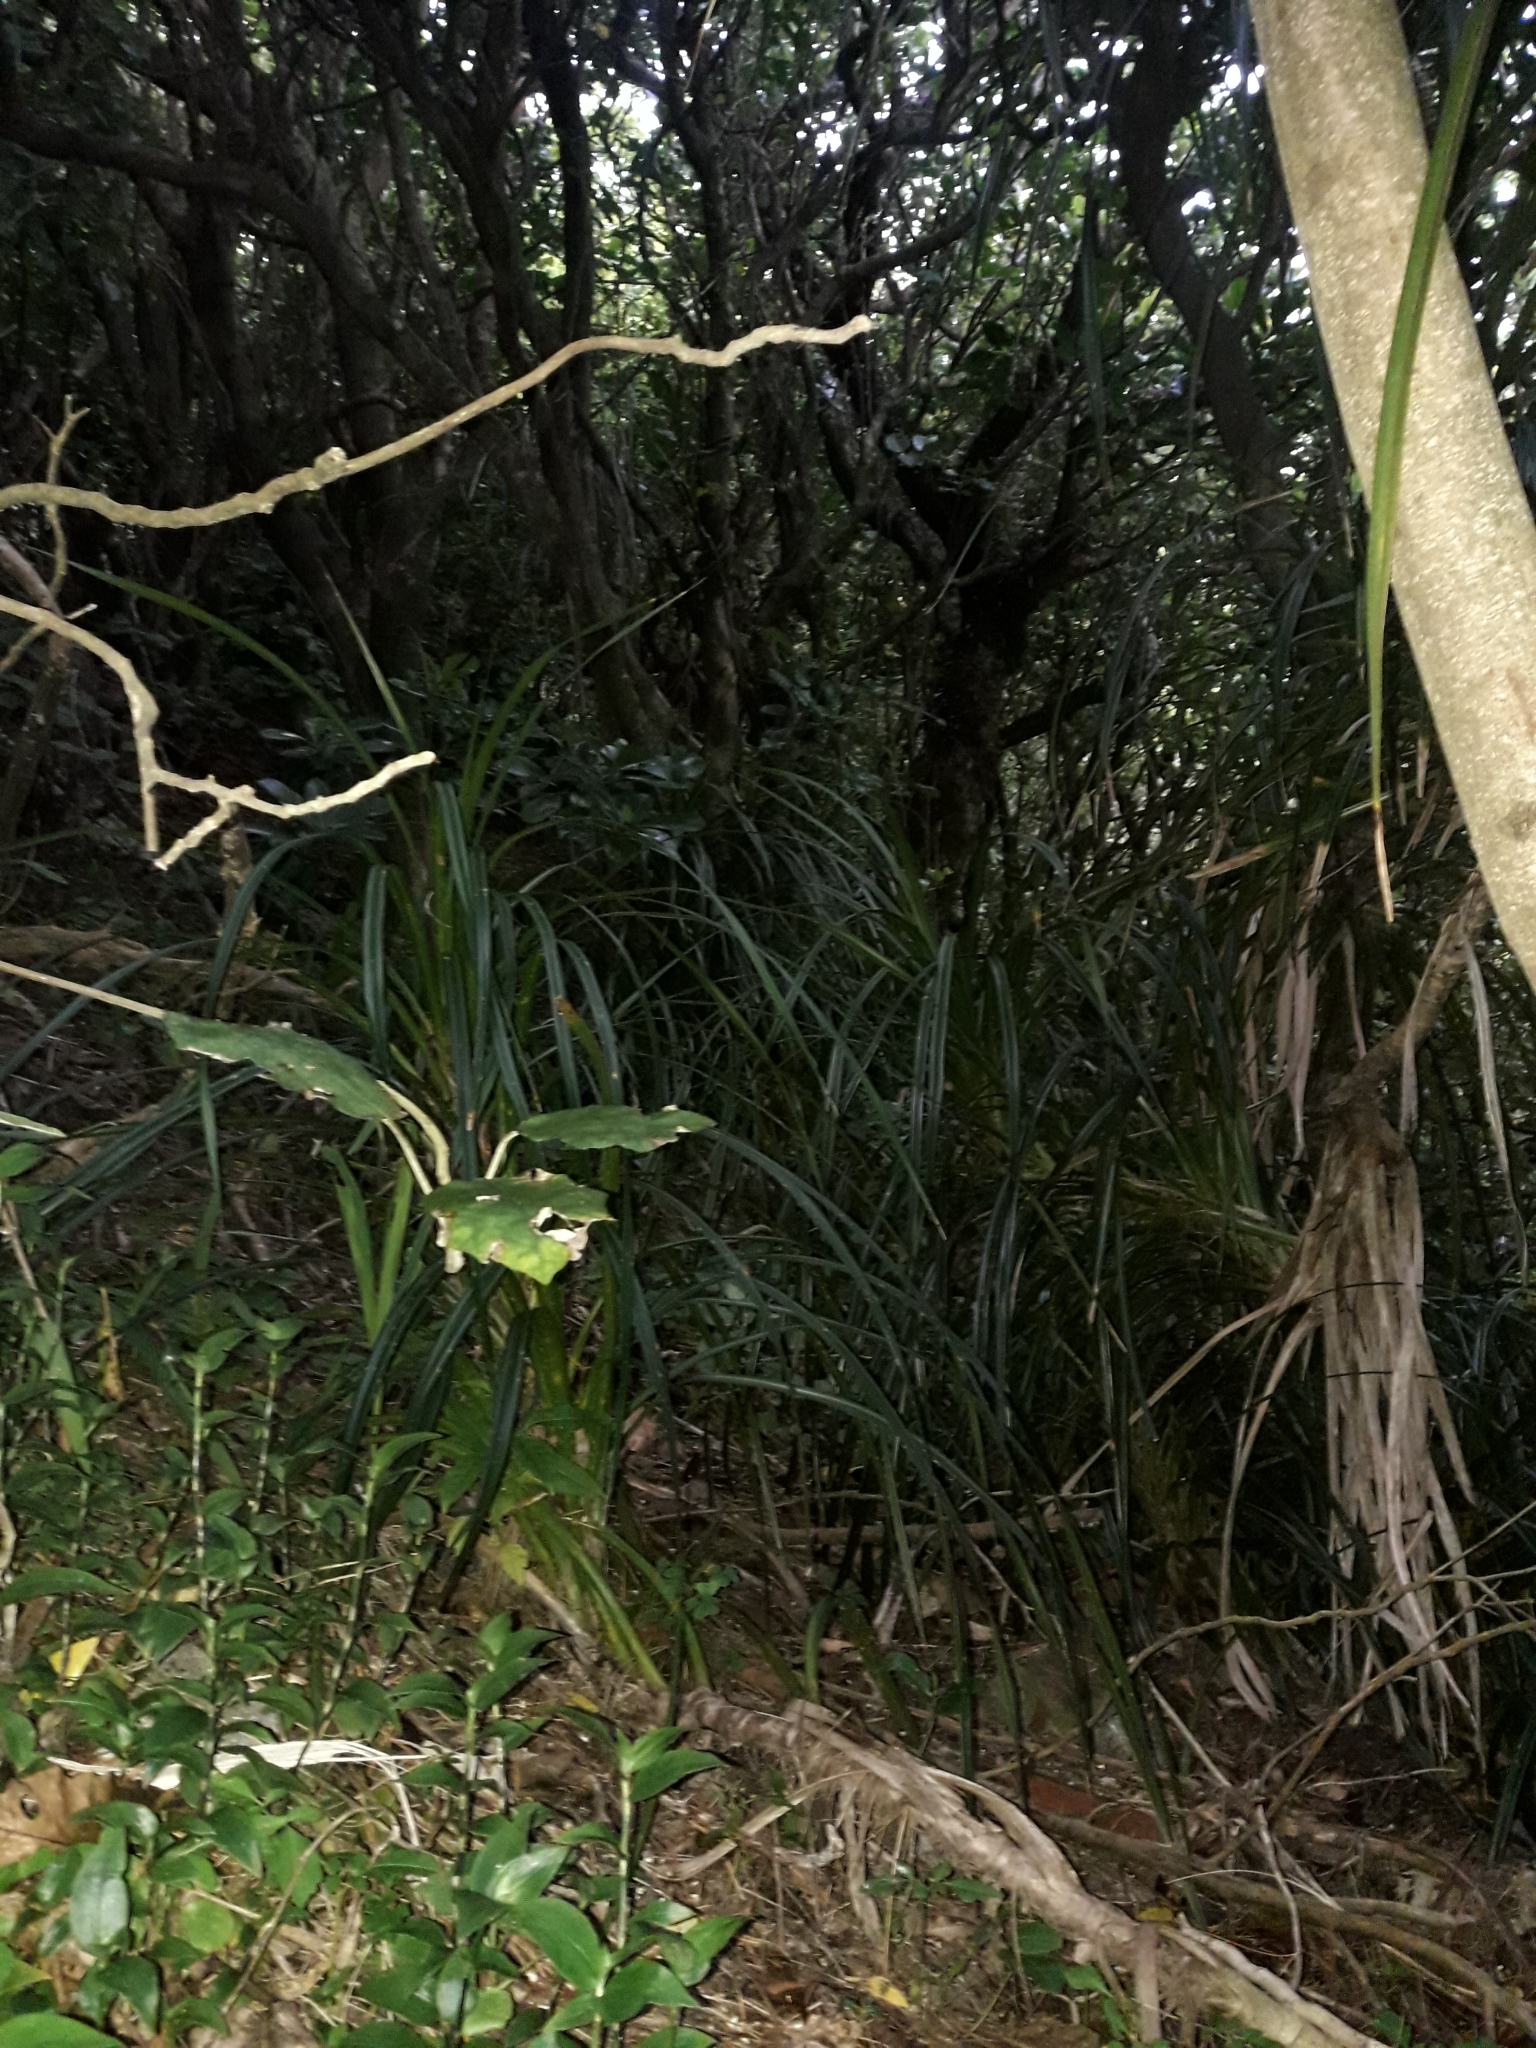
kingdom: Plantae
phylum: Tracheophyta
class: Liliopsida
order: Pandanales
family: Pandanaceae
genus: Freycinetia
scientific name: Freycinetia banksii
